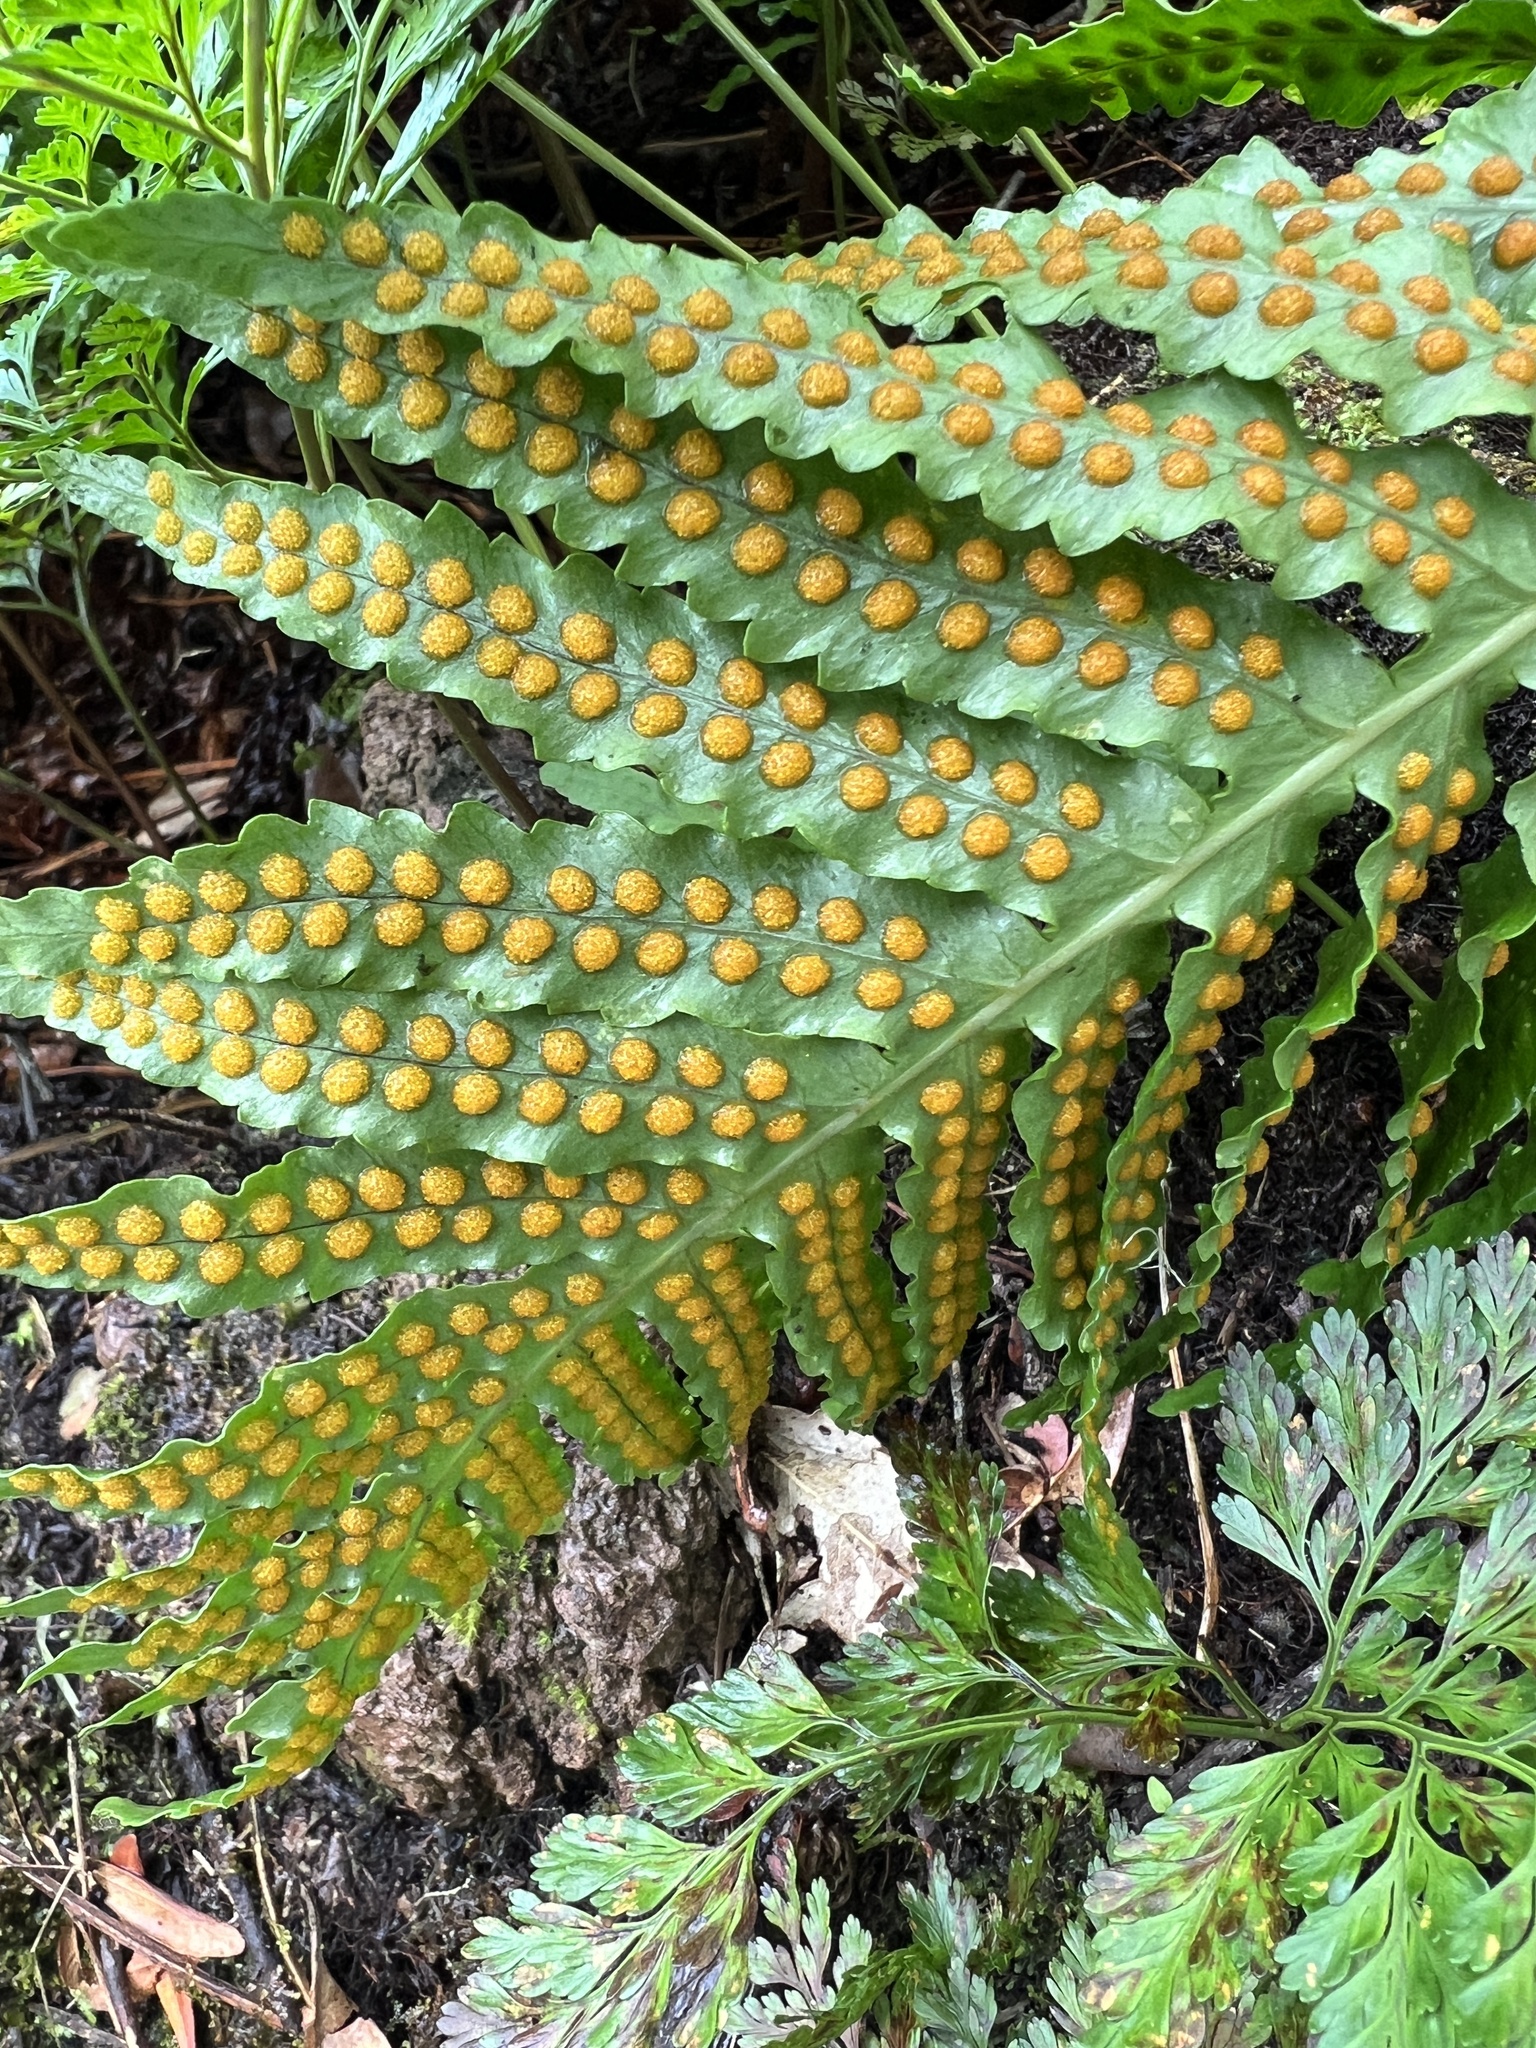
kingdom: Plantae
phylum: Tracheophyta
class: Polypodiopsida
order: Polypodiales
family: Polypodiaceae
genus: Polypodium
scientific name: Polypodium macaronesicum
